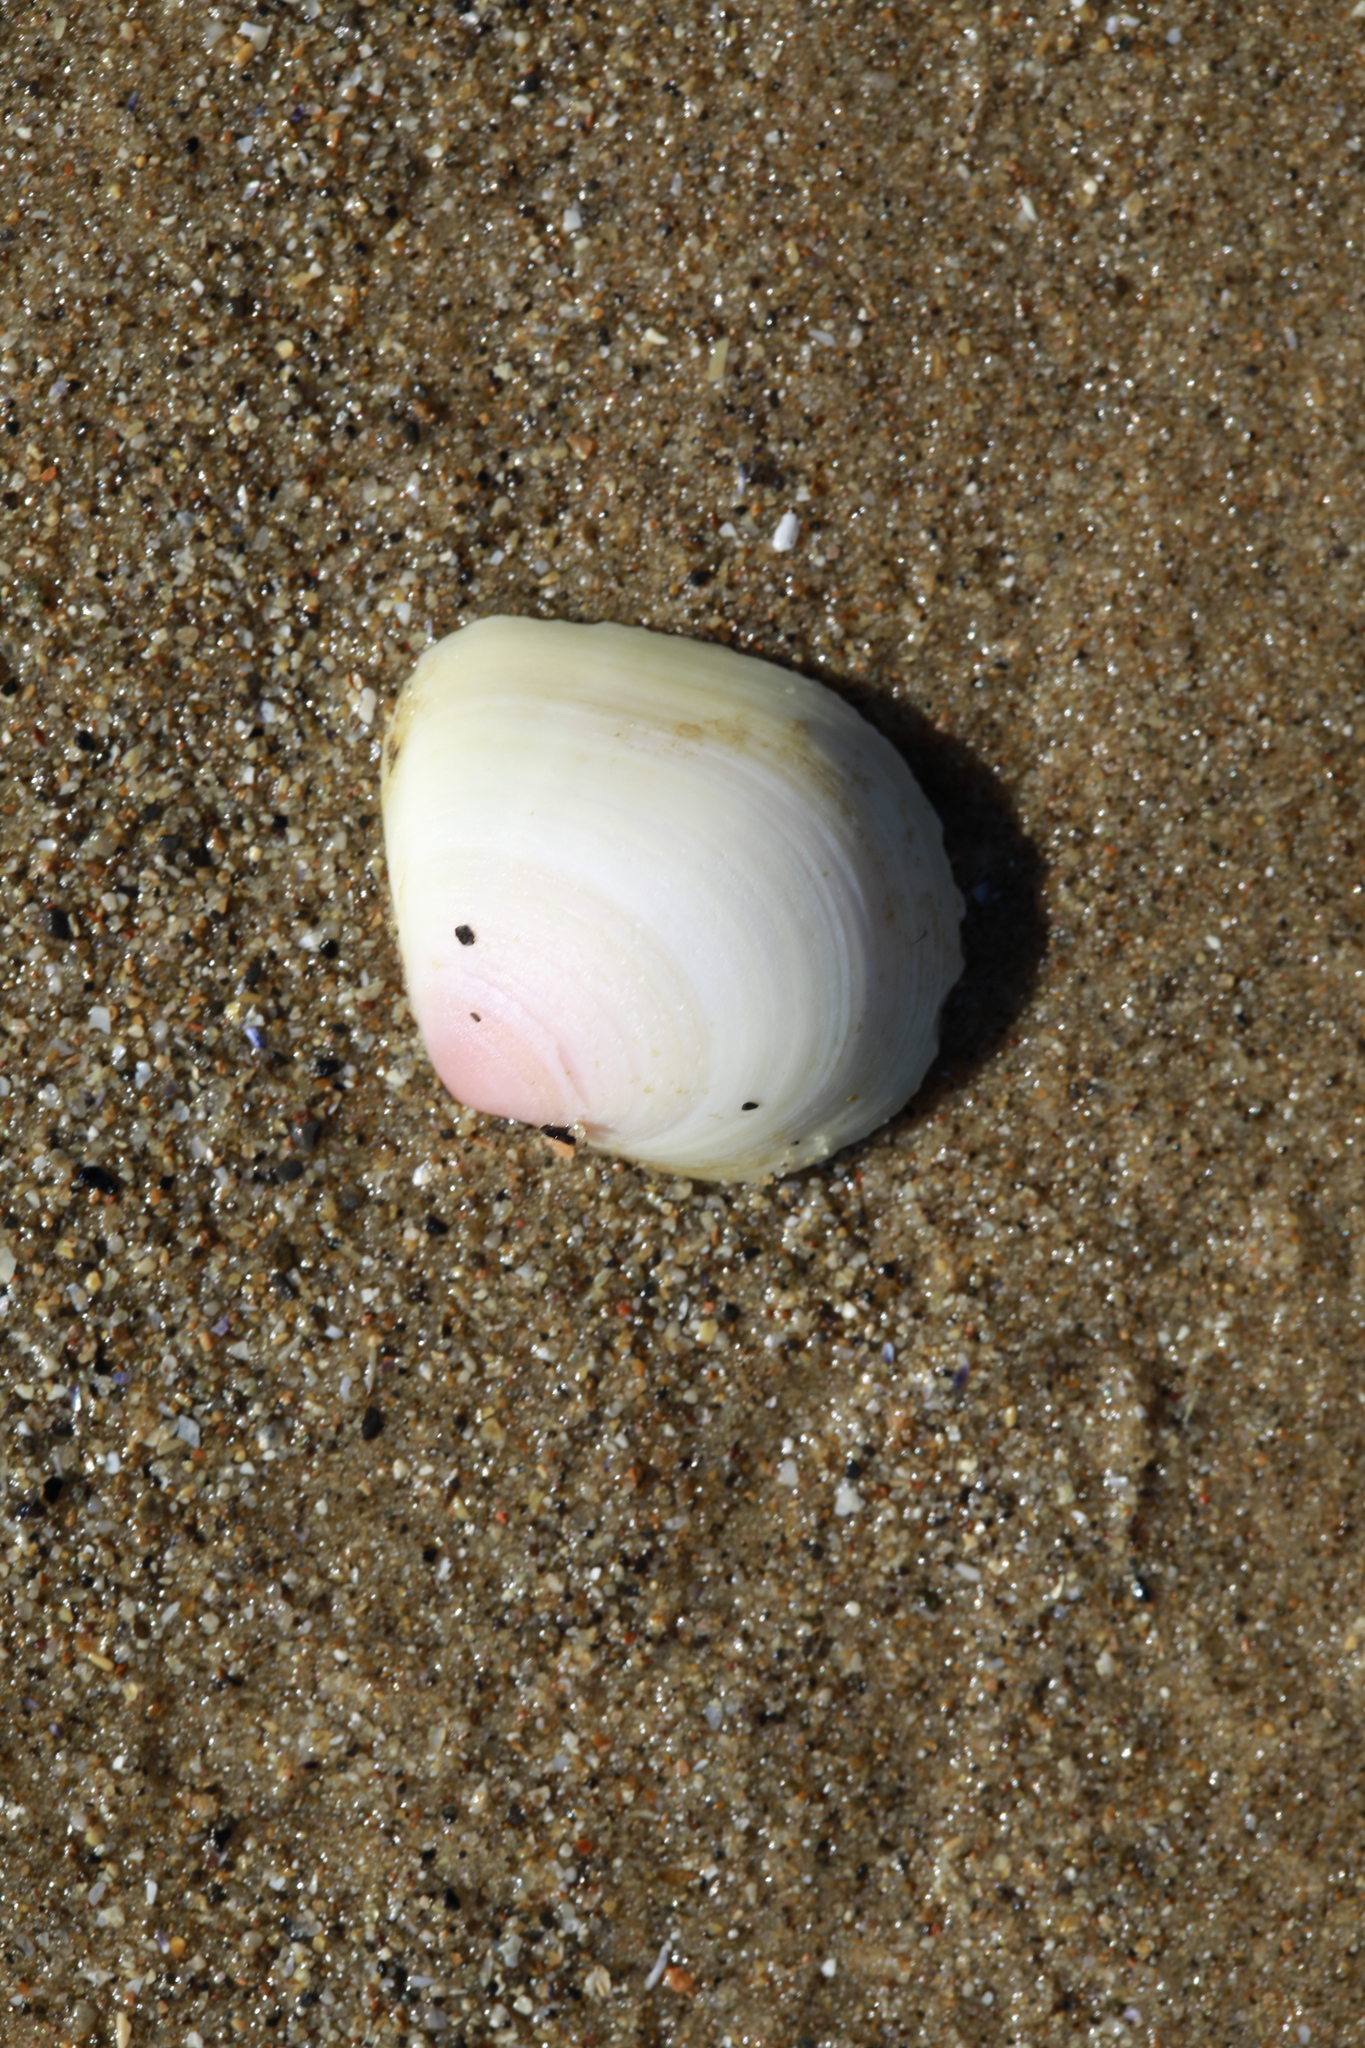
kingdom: Animalia
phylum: Mollusca
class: Bivalvia
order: Cardiida
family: Tellinidae
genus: Macoma
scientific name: Macoma balthica
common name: Baltic tellin
